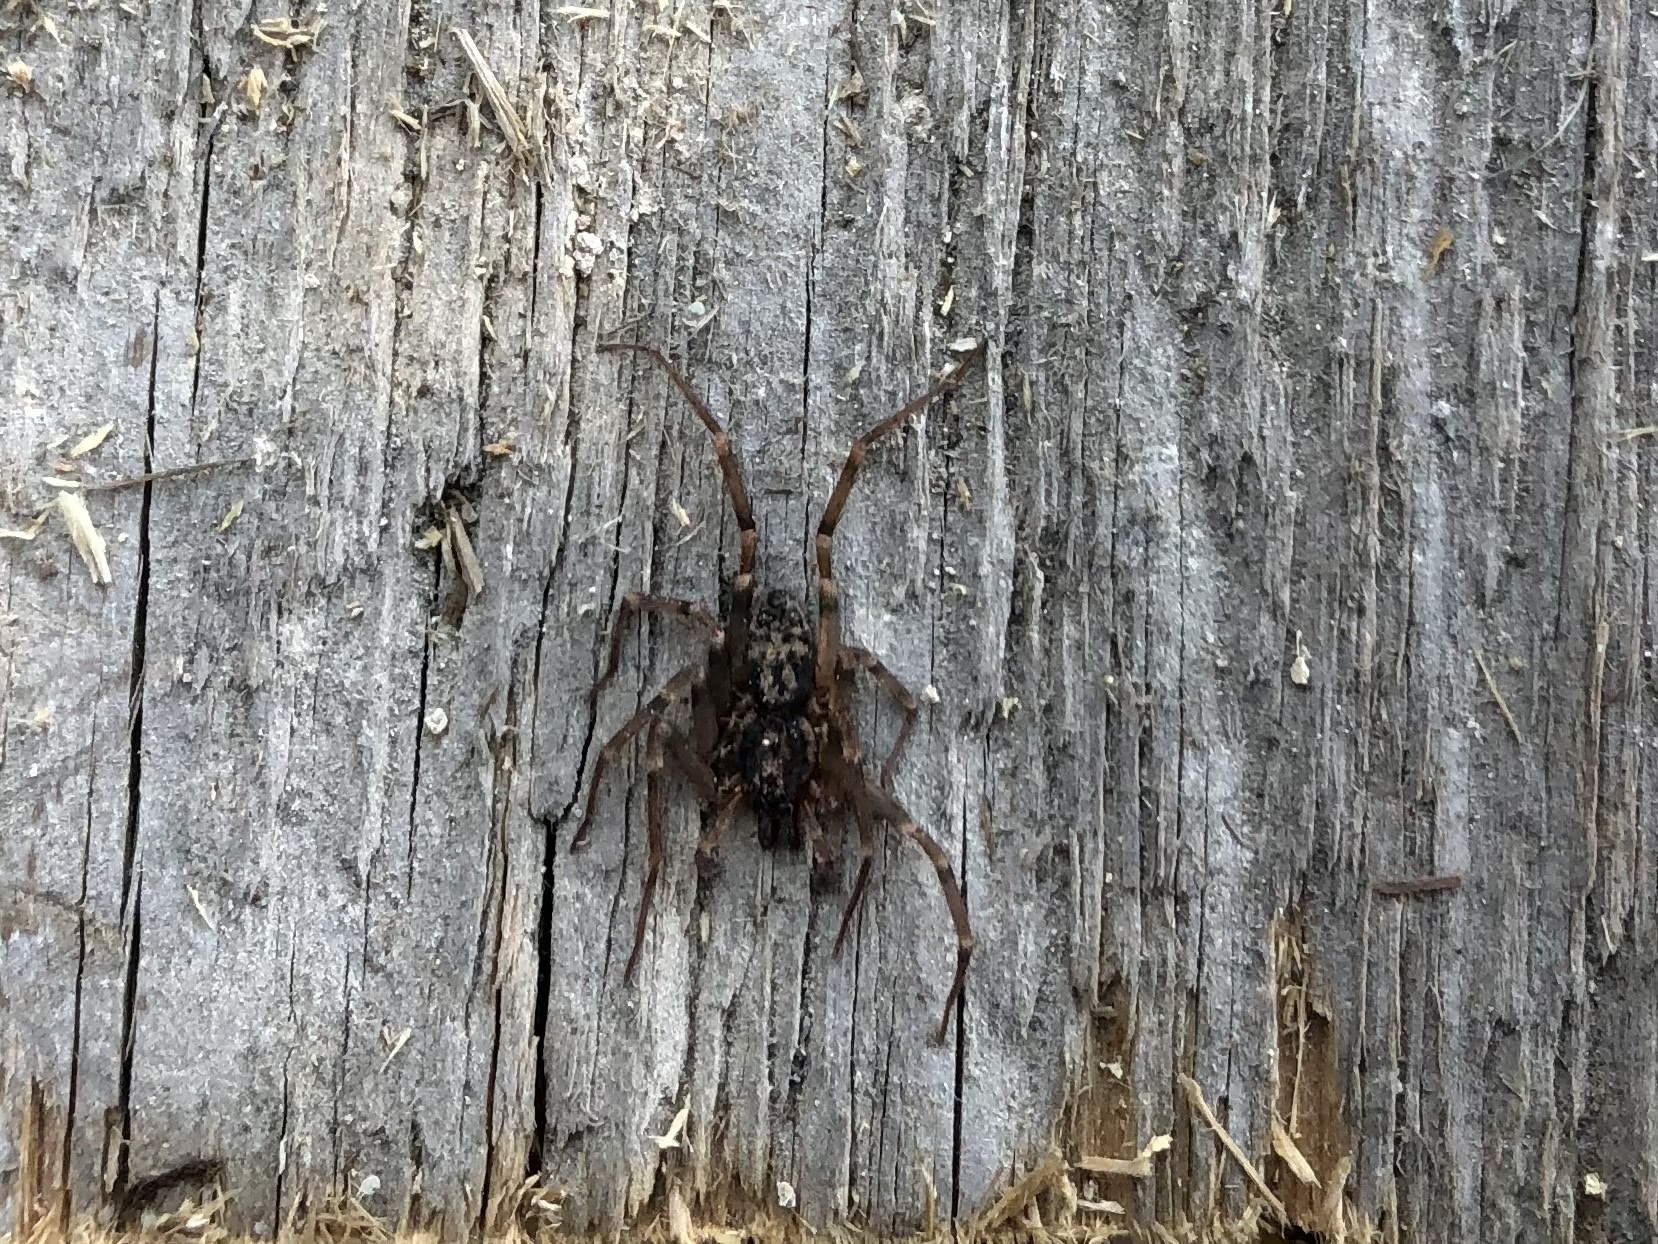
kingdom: Animalia
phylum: Arthropoda
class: Arachnida
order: Araneae
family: Liocranidae
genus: Liocranum
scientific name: Liocranum rupicola
